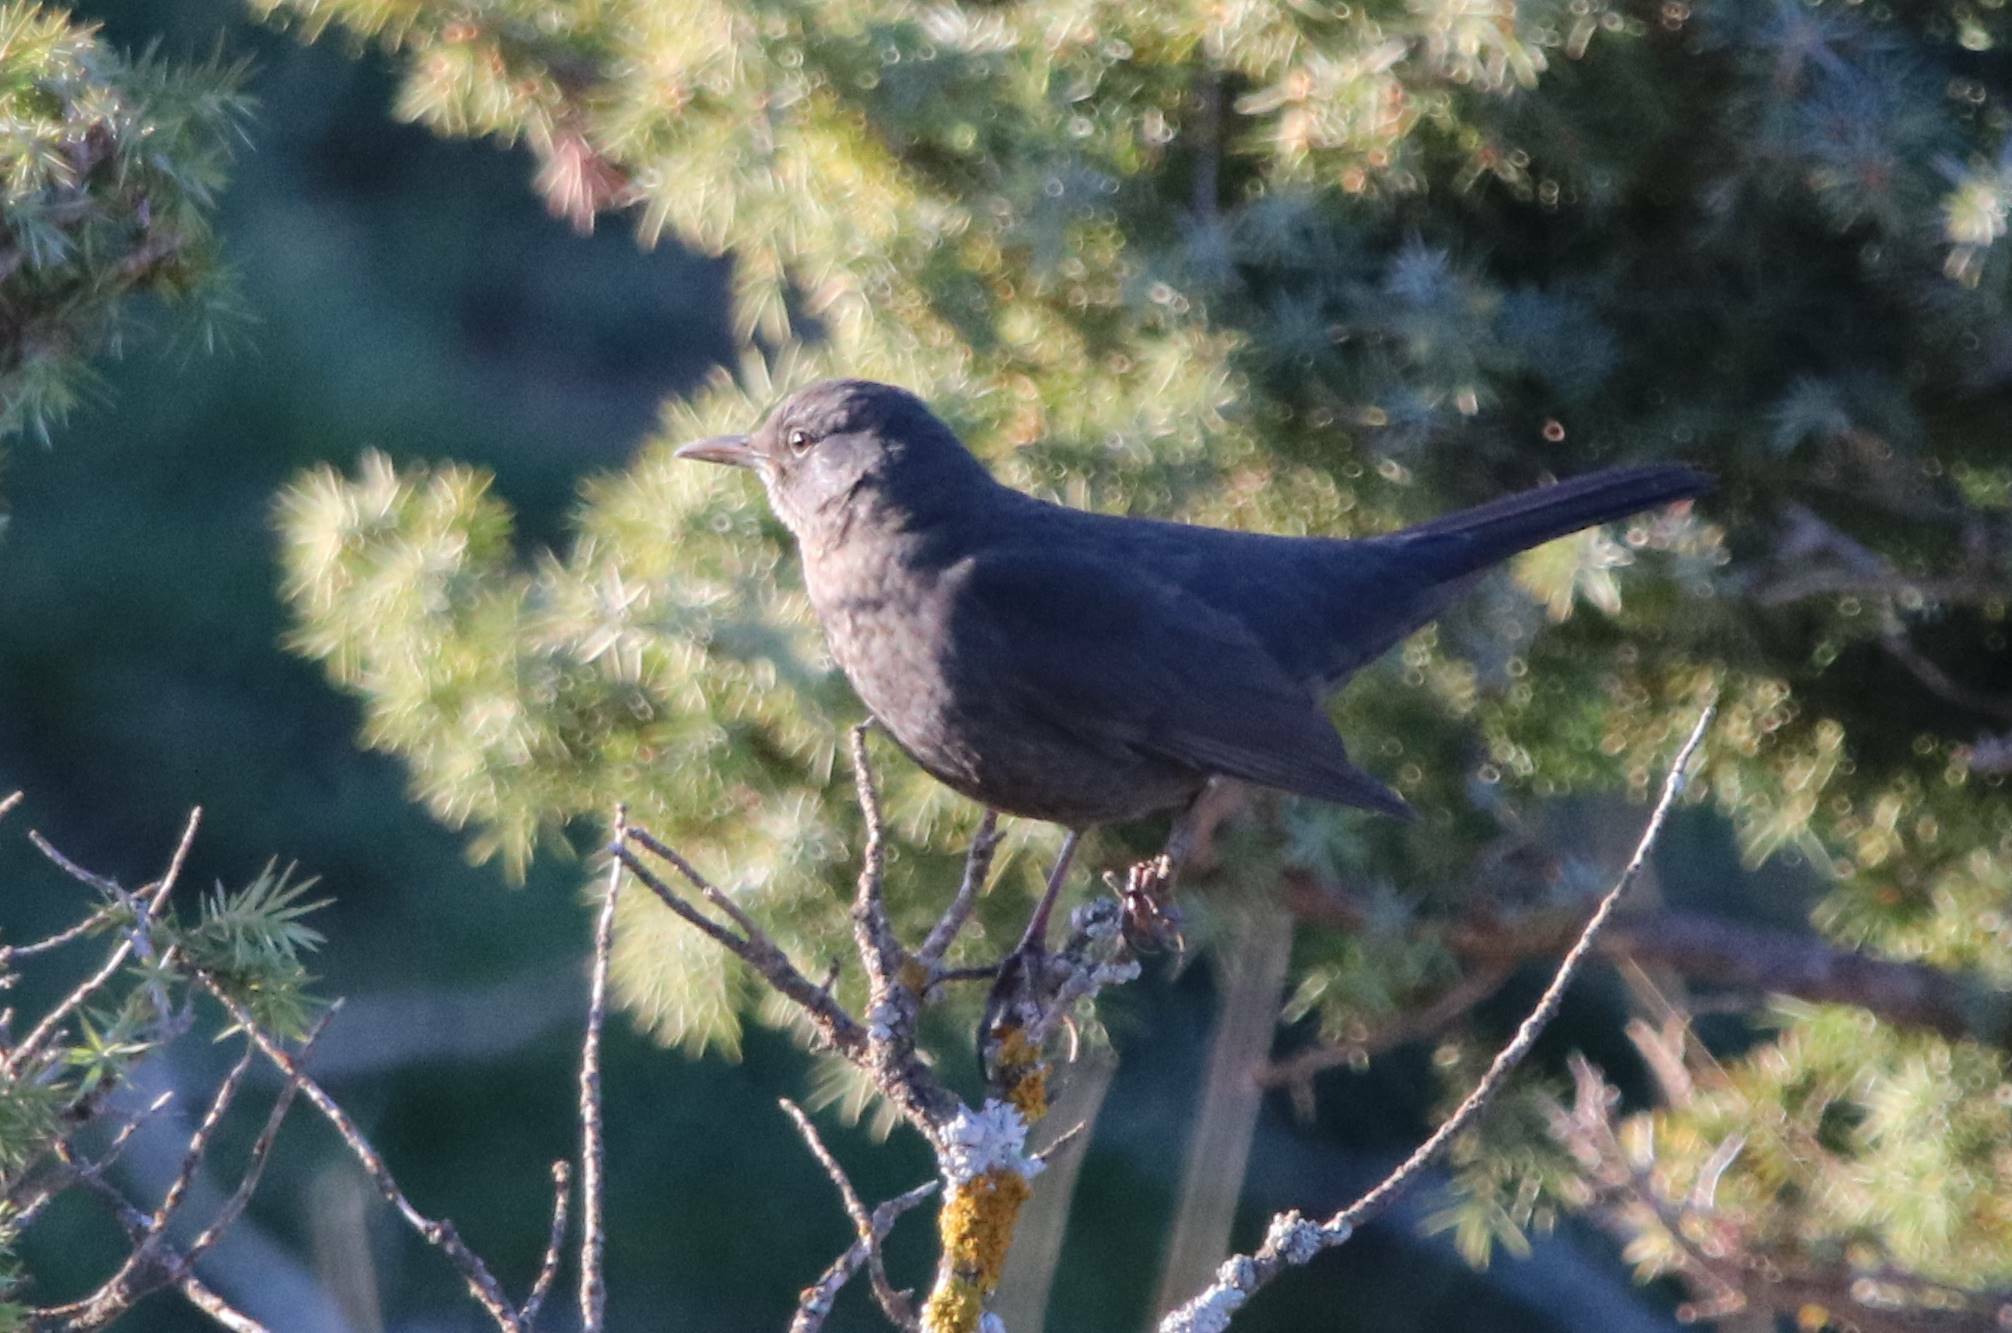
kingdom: Animalia
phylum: Chordata
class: Aves
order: Passeriformes
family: Turdidae
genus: Turdus
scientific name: Turdus merula
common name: Common blackbird
